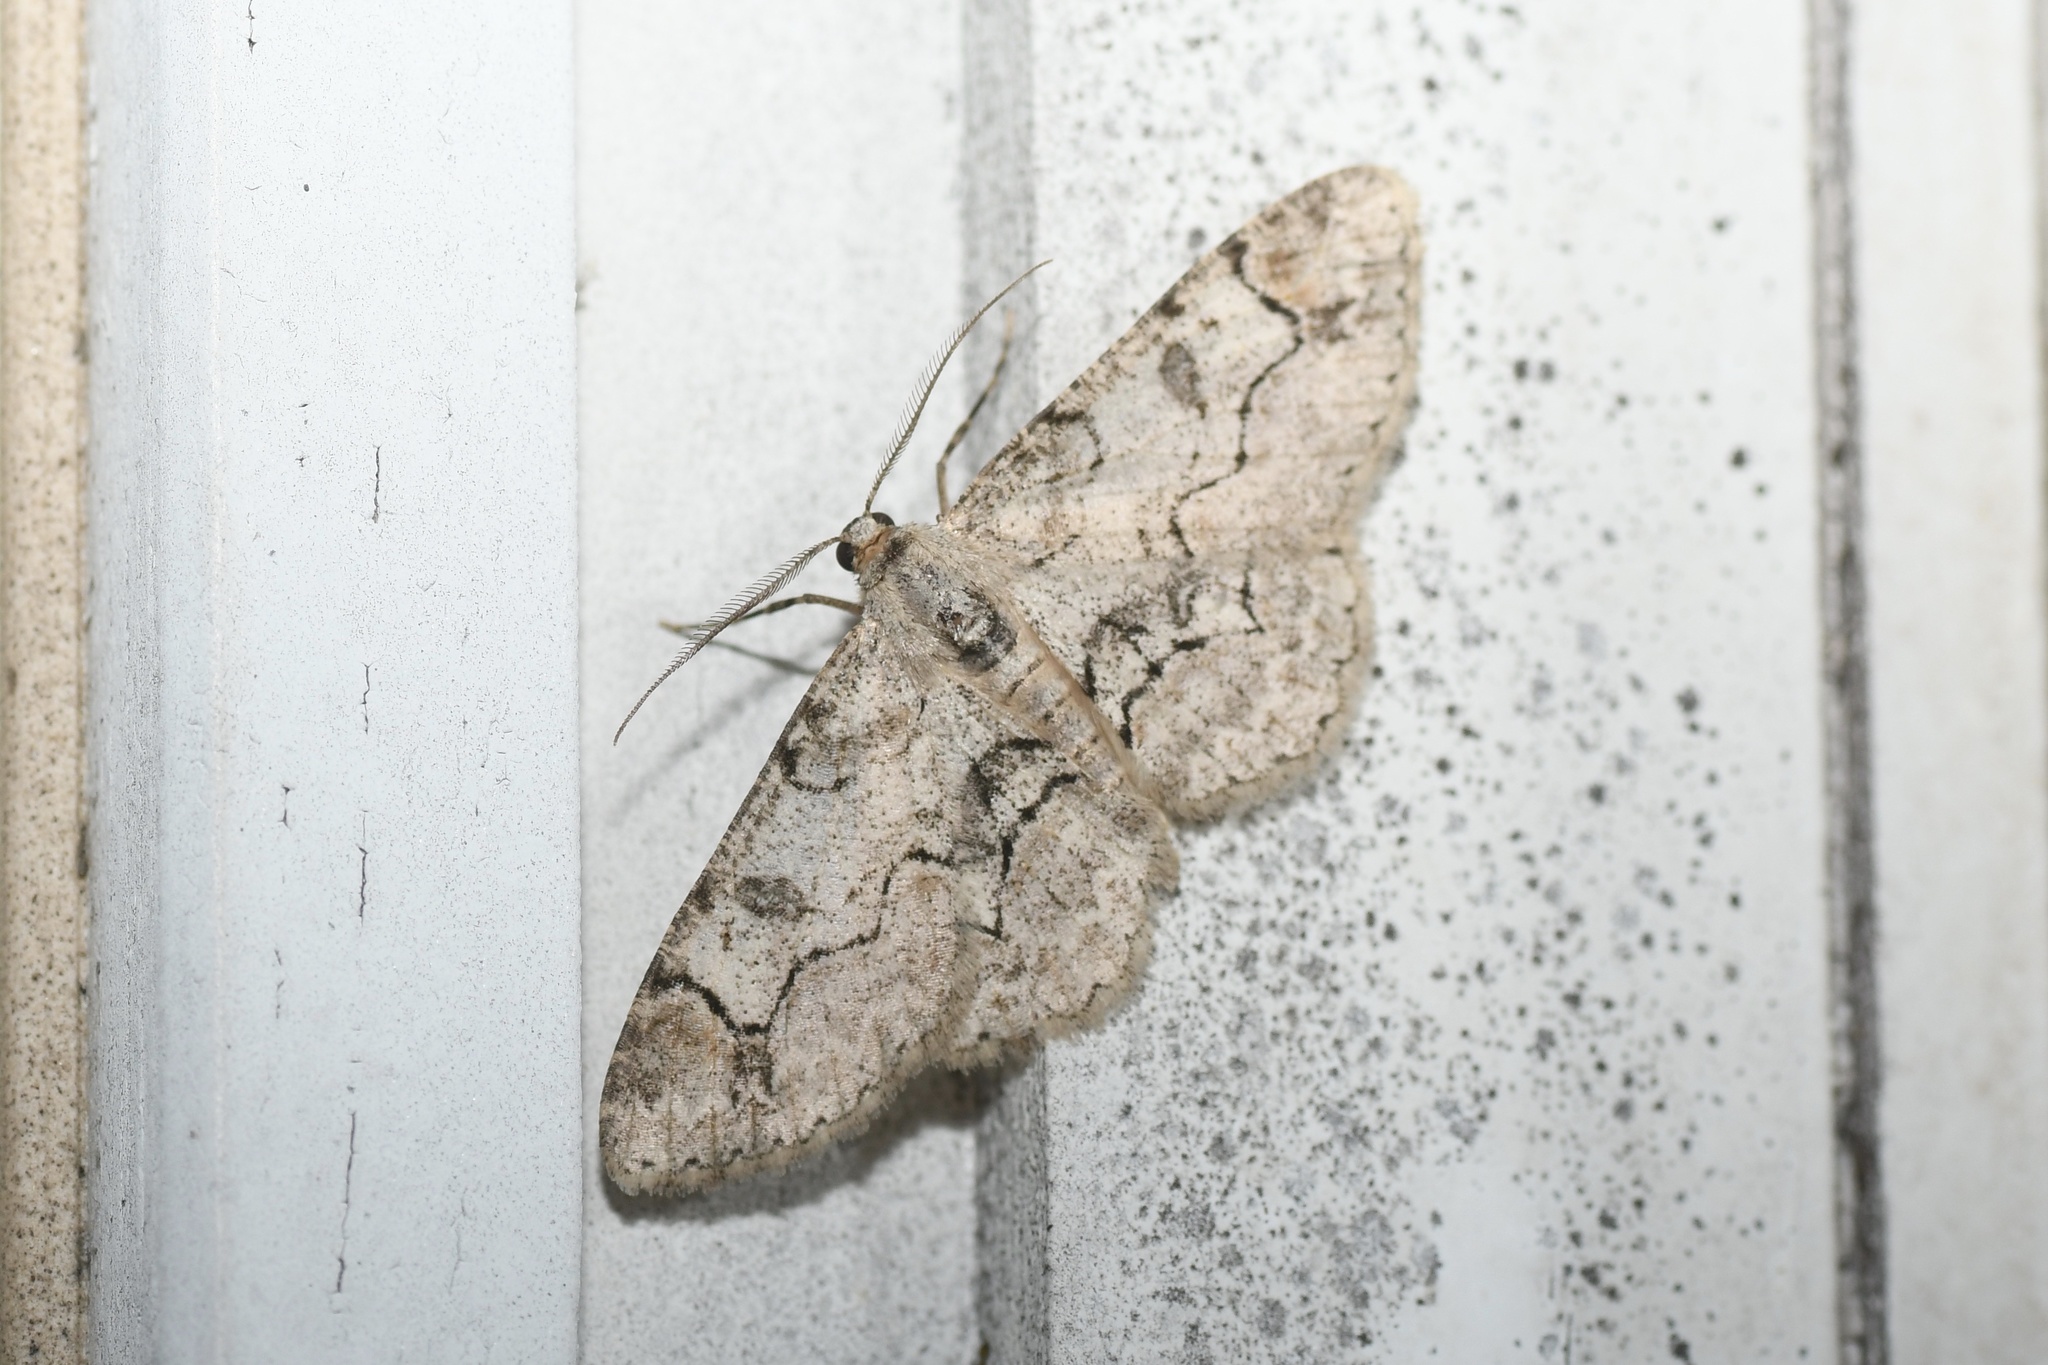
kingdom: Animalia
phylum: Arthropoda
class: Insecta
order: Lepidoptera
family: Geometridae
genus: Iridopsis
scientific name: Iridopsis larvaria
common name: Bent-line gray
